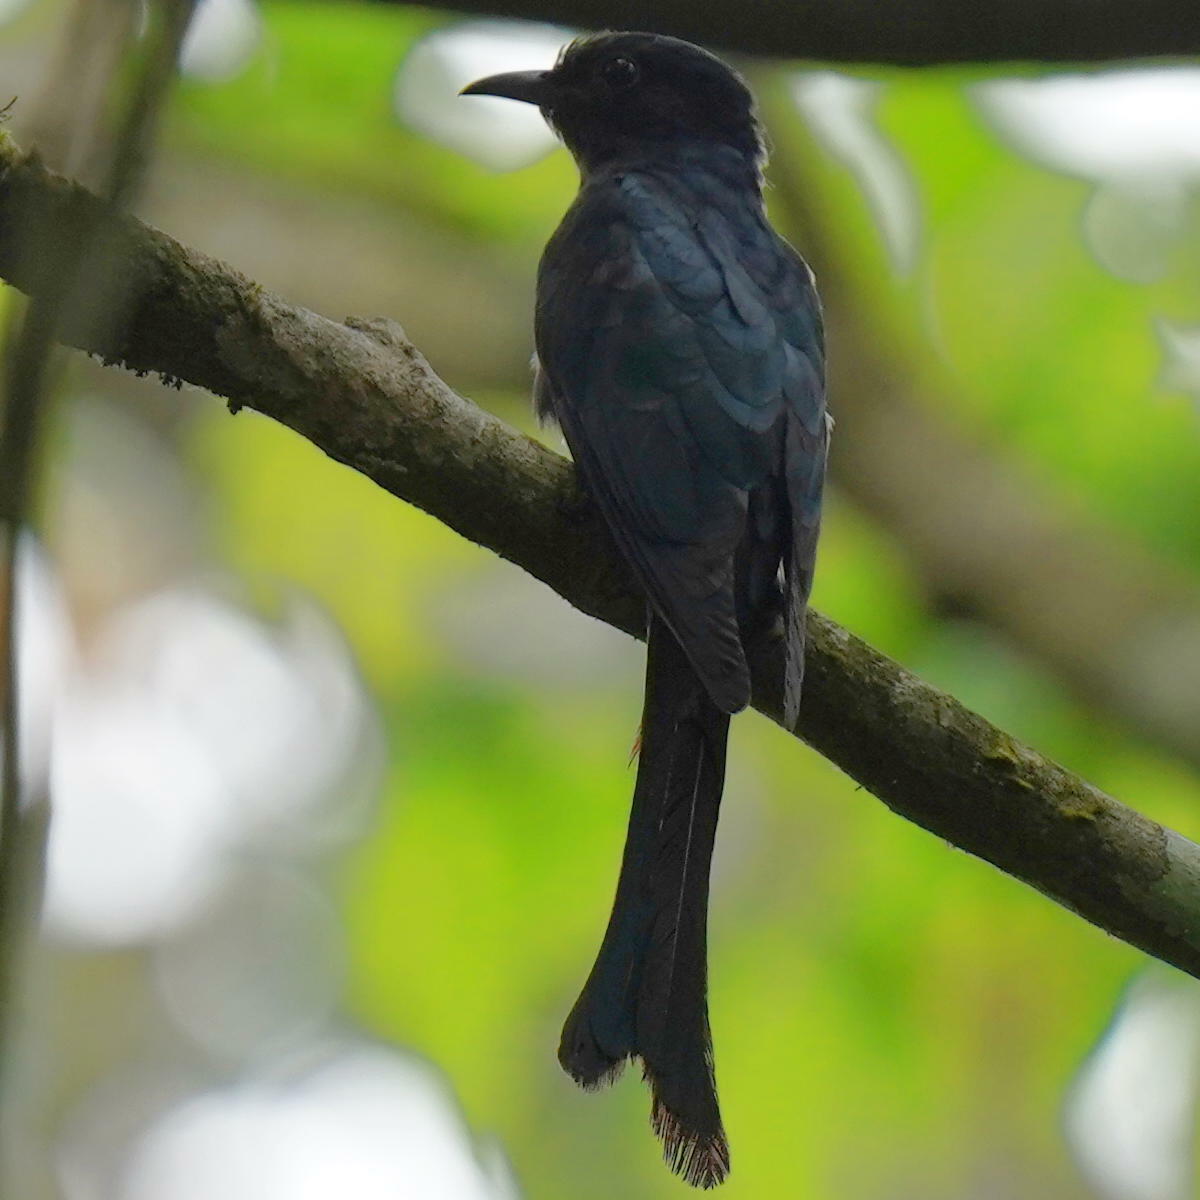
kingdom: Animalia
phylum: Chordata
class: Aves
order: Cuculiformes
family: Cuculidae
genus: Surniculus
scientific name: Surniculus lugubris
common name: Square-tailed drongo-cuckoo
